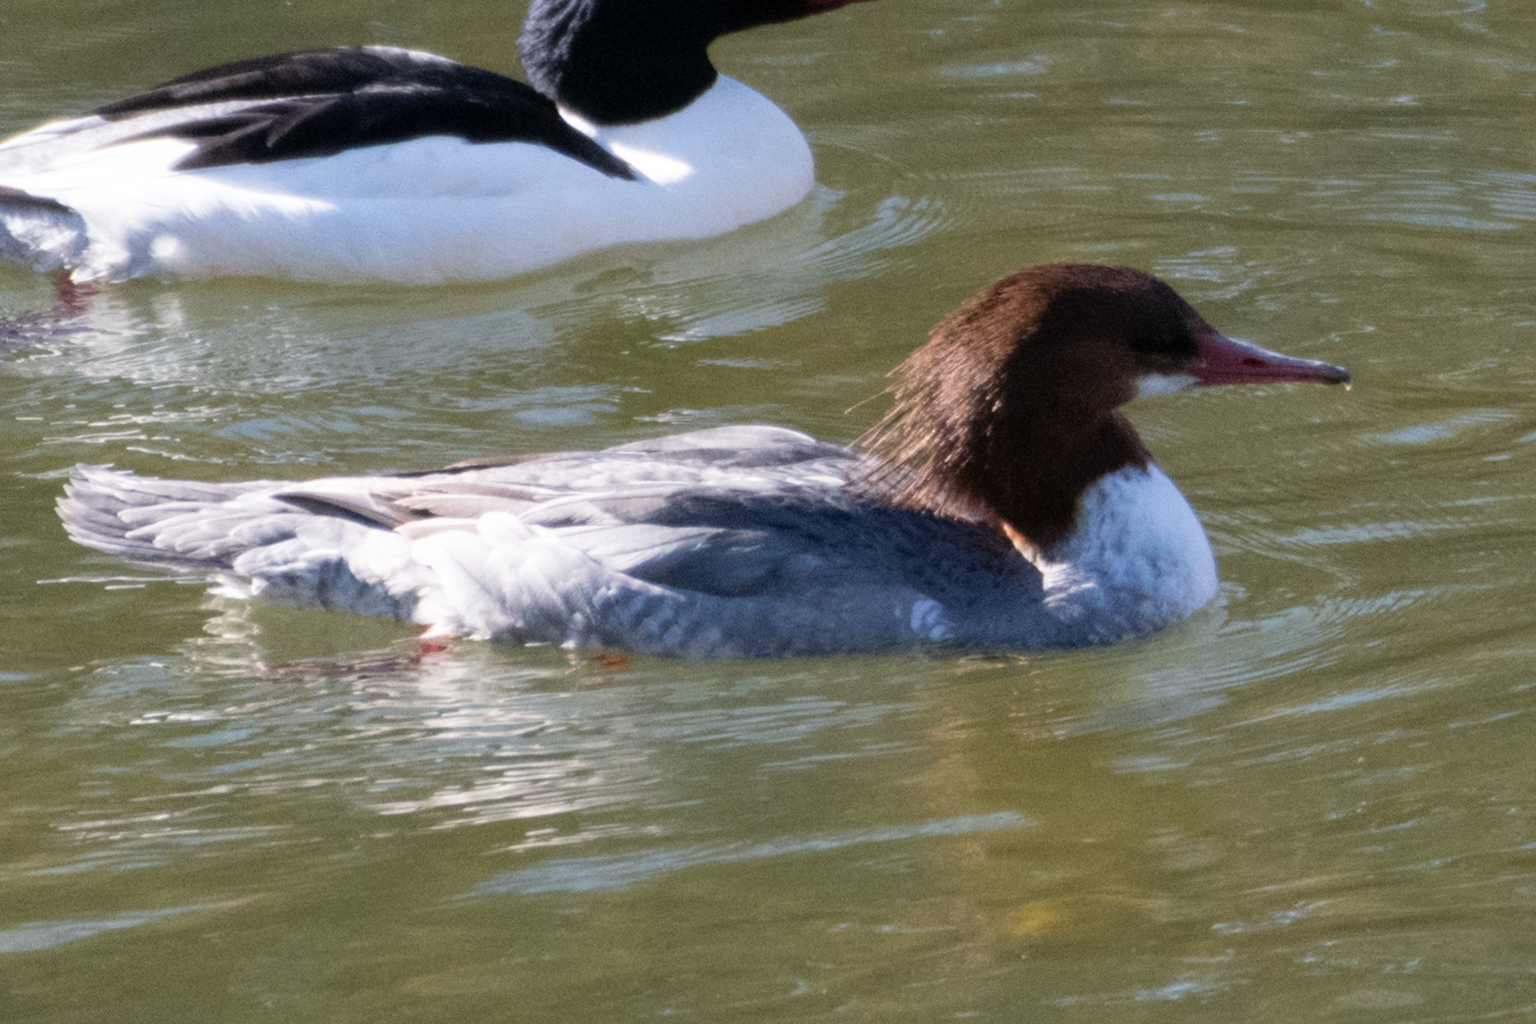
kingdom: Animalia
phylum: Chordata
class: Aves
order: Anseriformes
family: Anatidae
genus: Mergus
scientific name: Mergus merganser
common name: Common merganser
